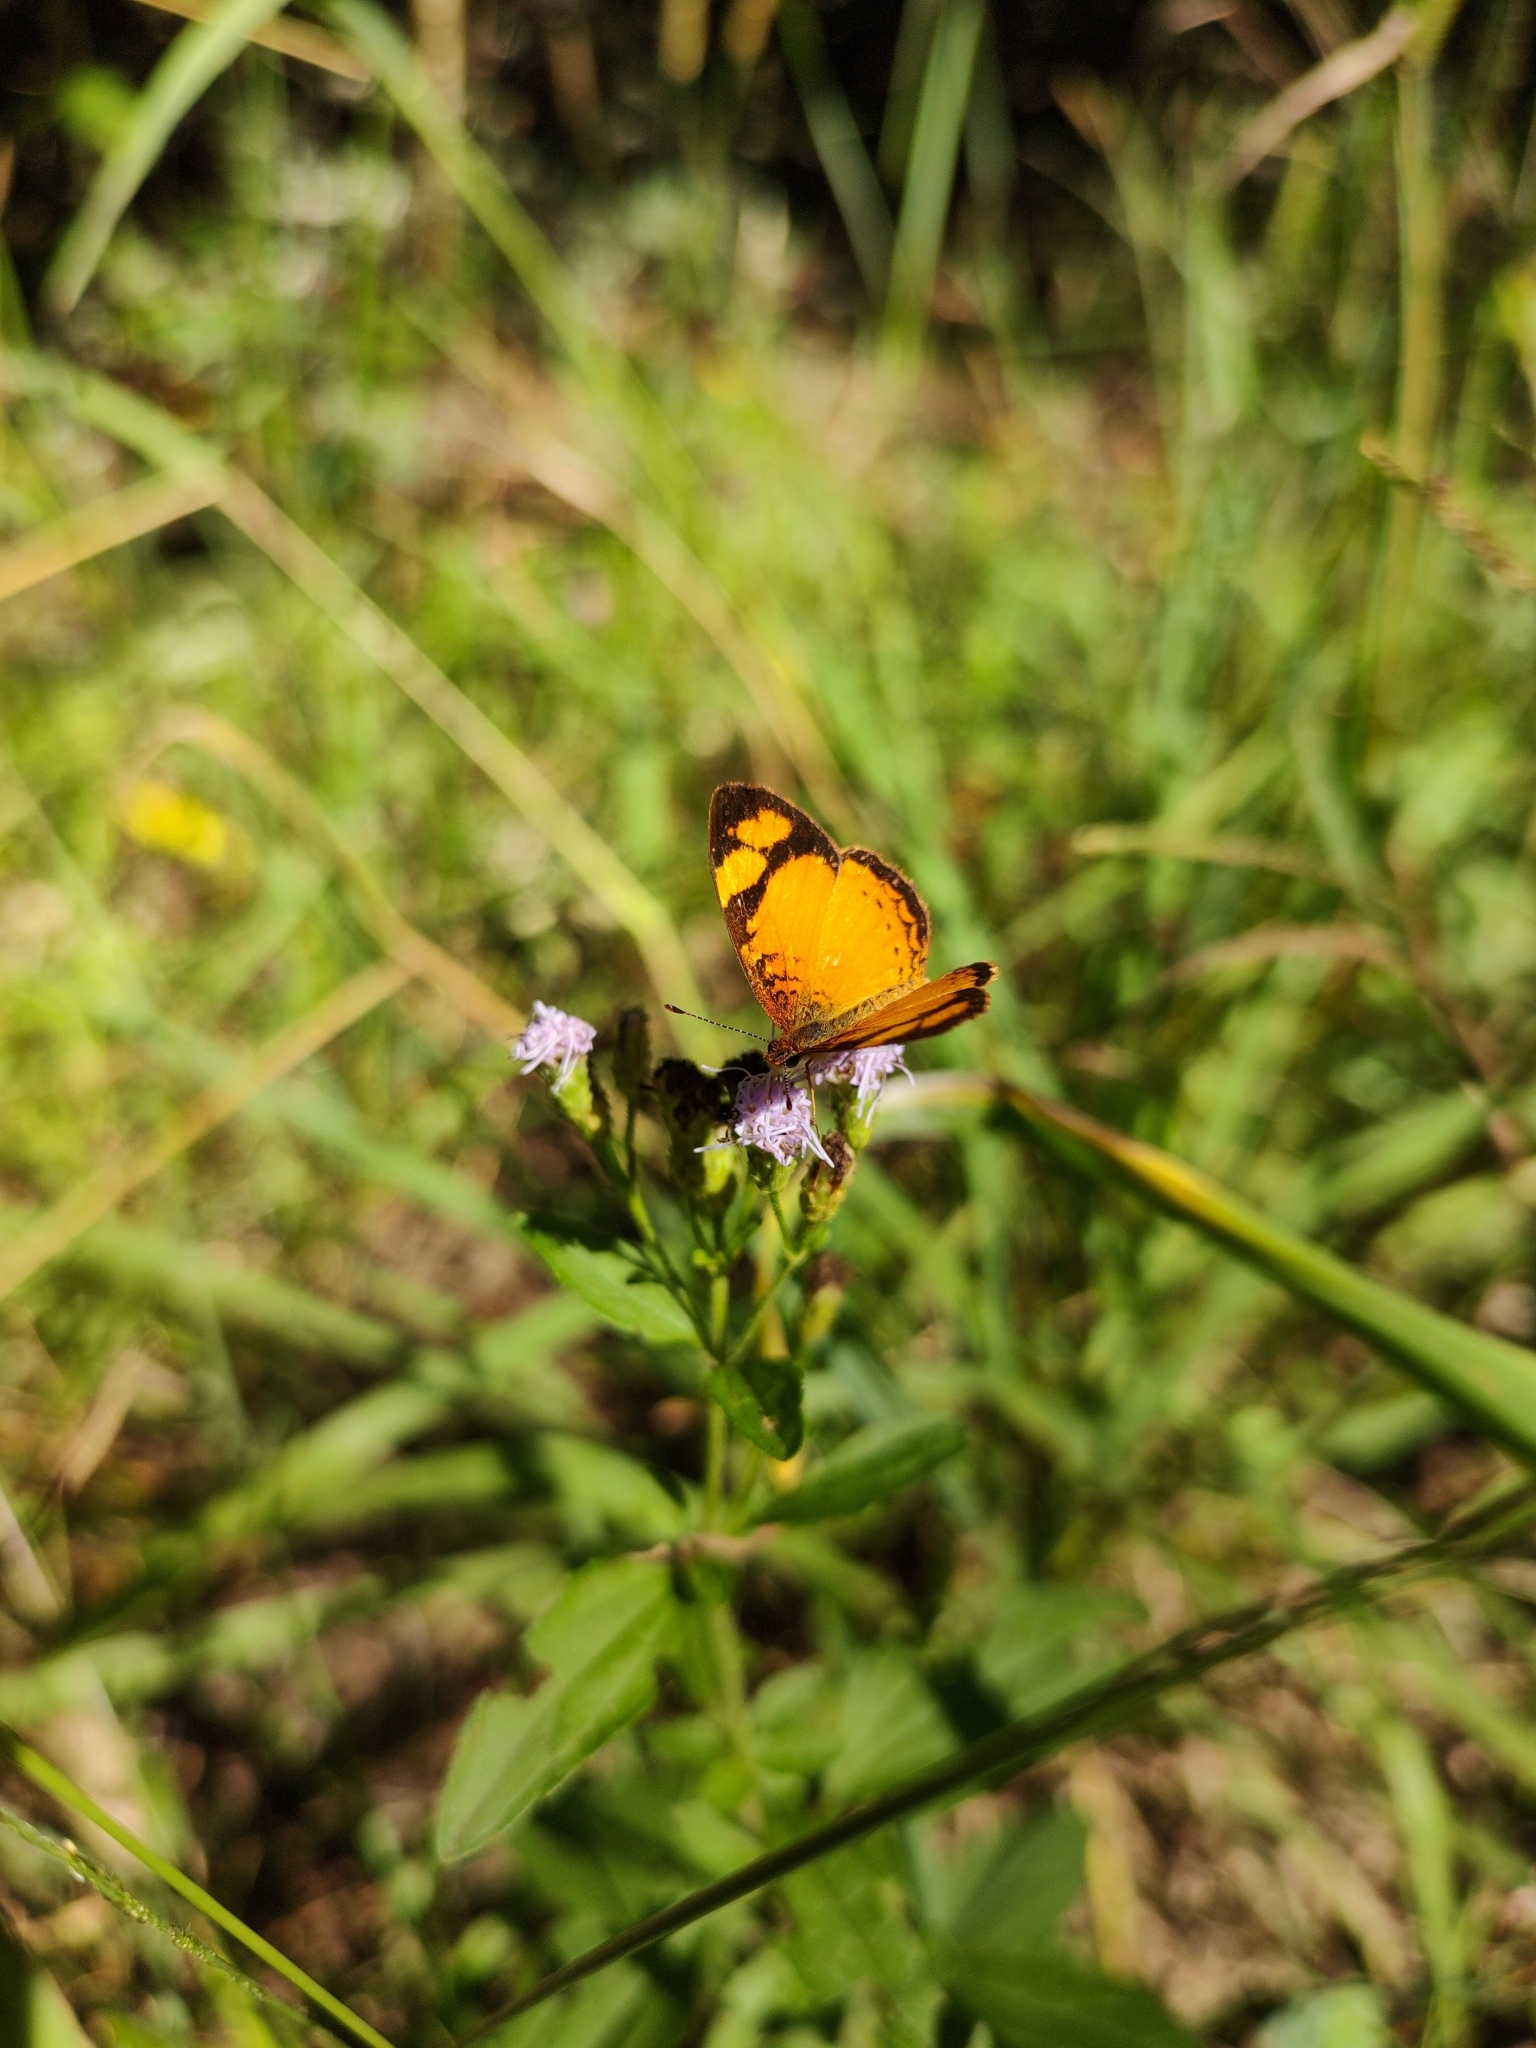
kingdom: Animalia
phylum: Arthropoda
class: Insecta
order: Lepidoptera
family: Nymphalidae
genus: Tegosa
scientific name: Tegosa claudina
